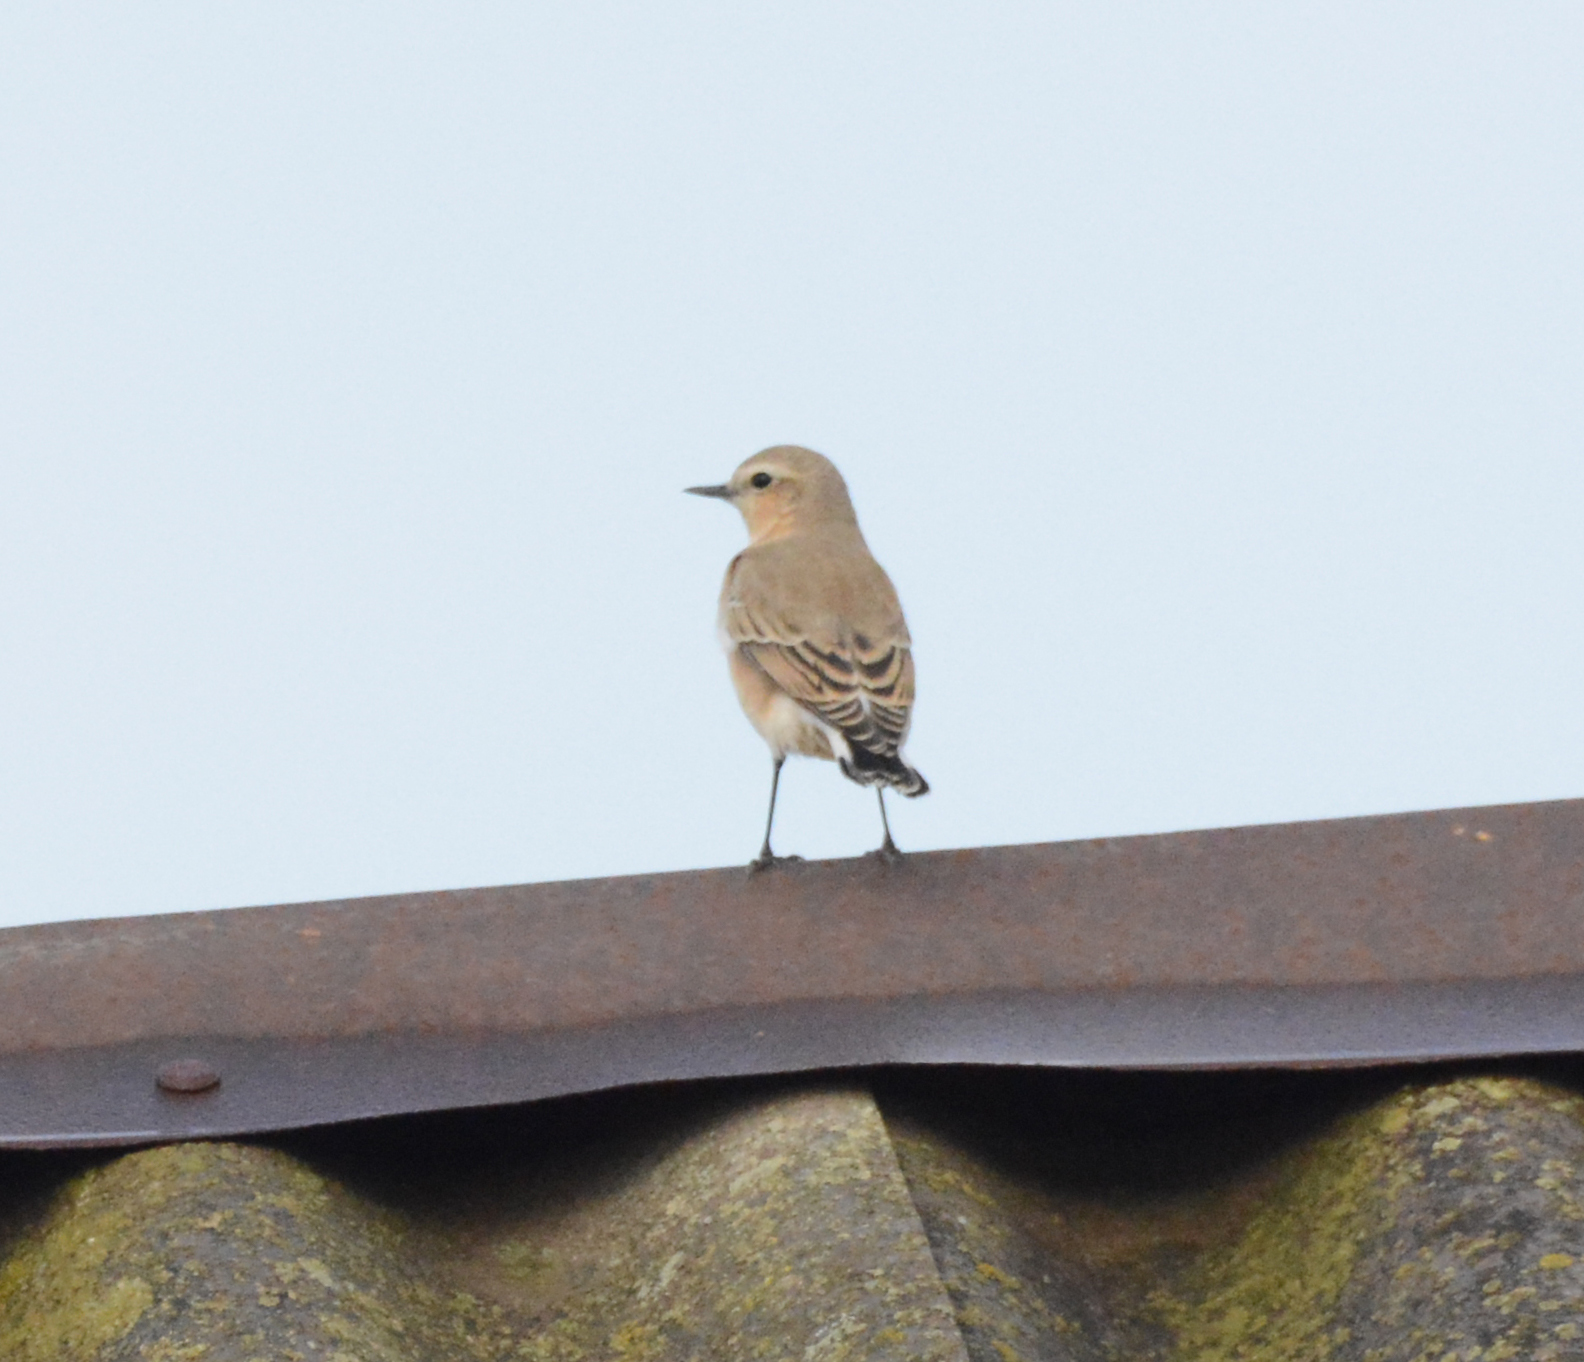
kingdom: Animalia
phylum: Chordata
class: Aves
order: Passeriformes
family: Muscicapidae
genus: Oenanthe
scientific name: Oenanthe oenanthe
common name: Northern wheatear
